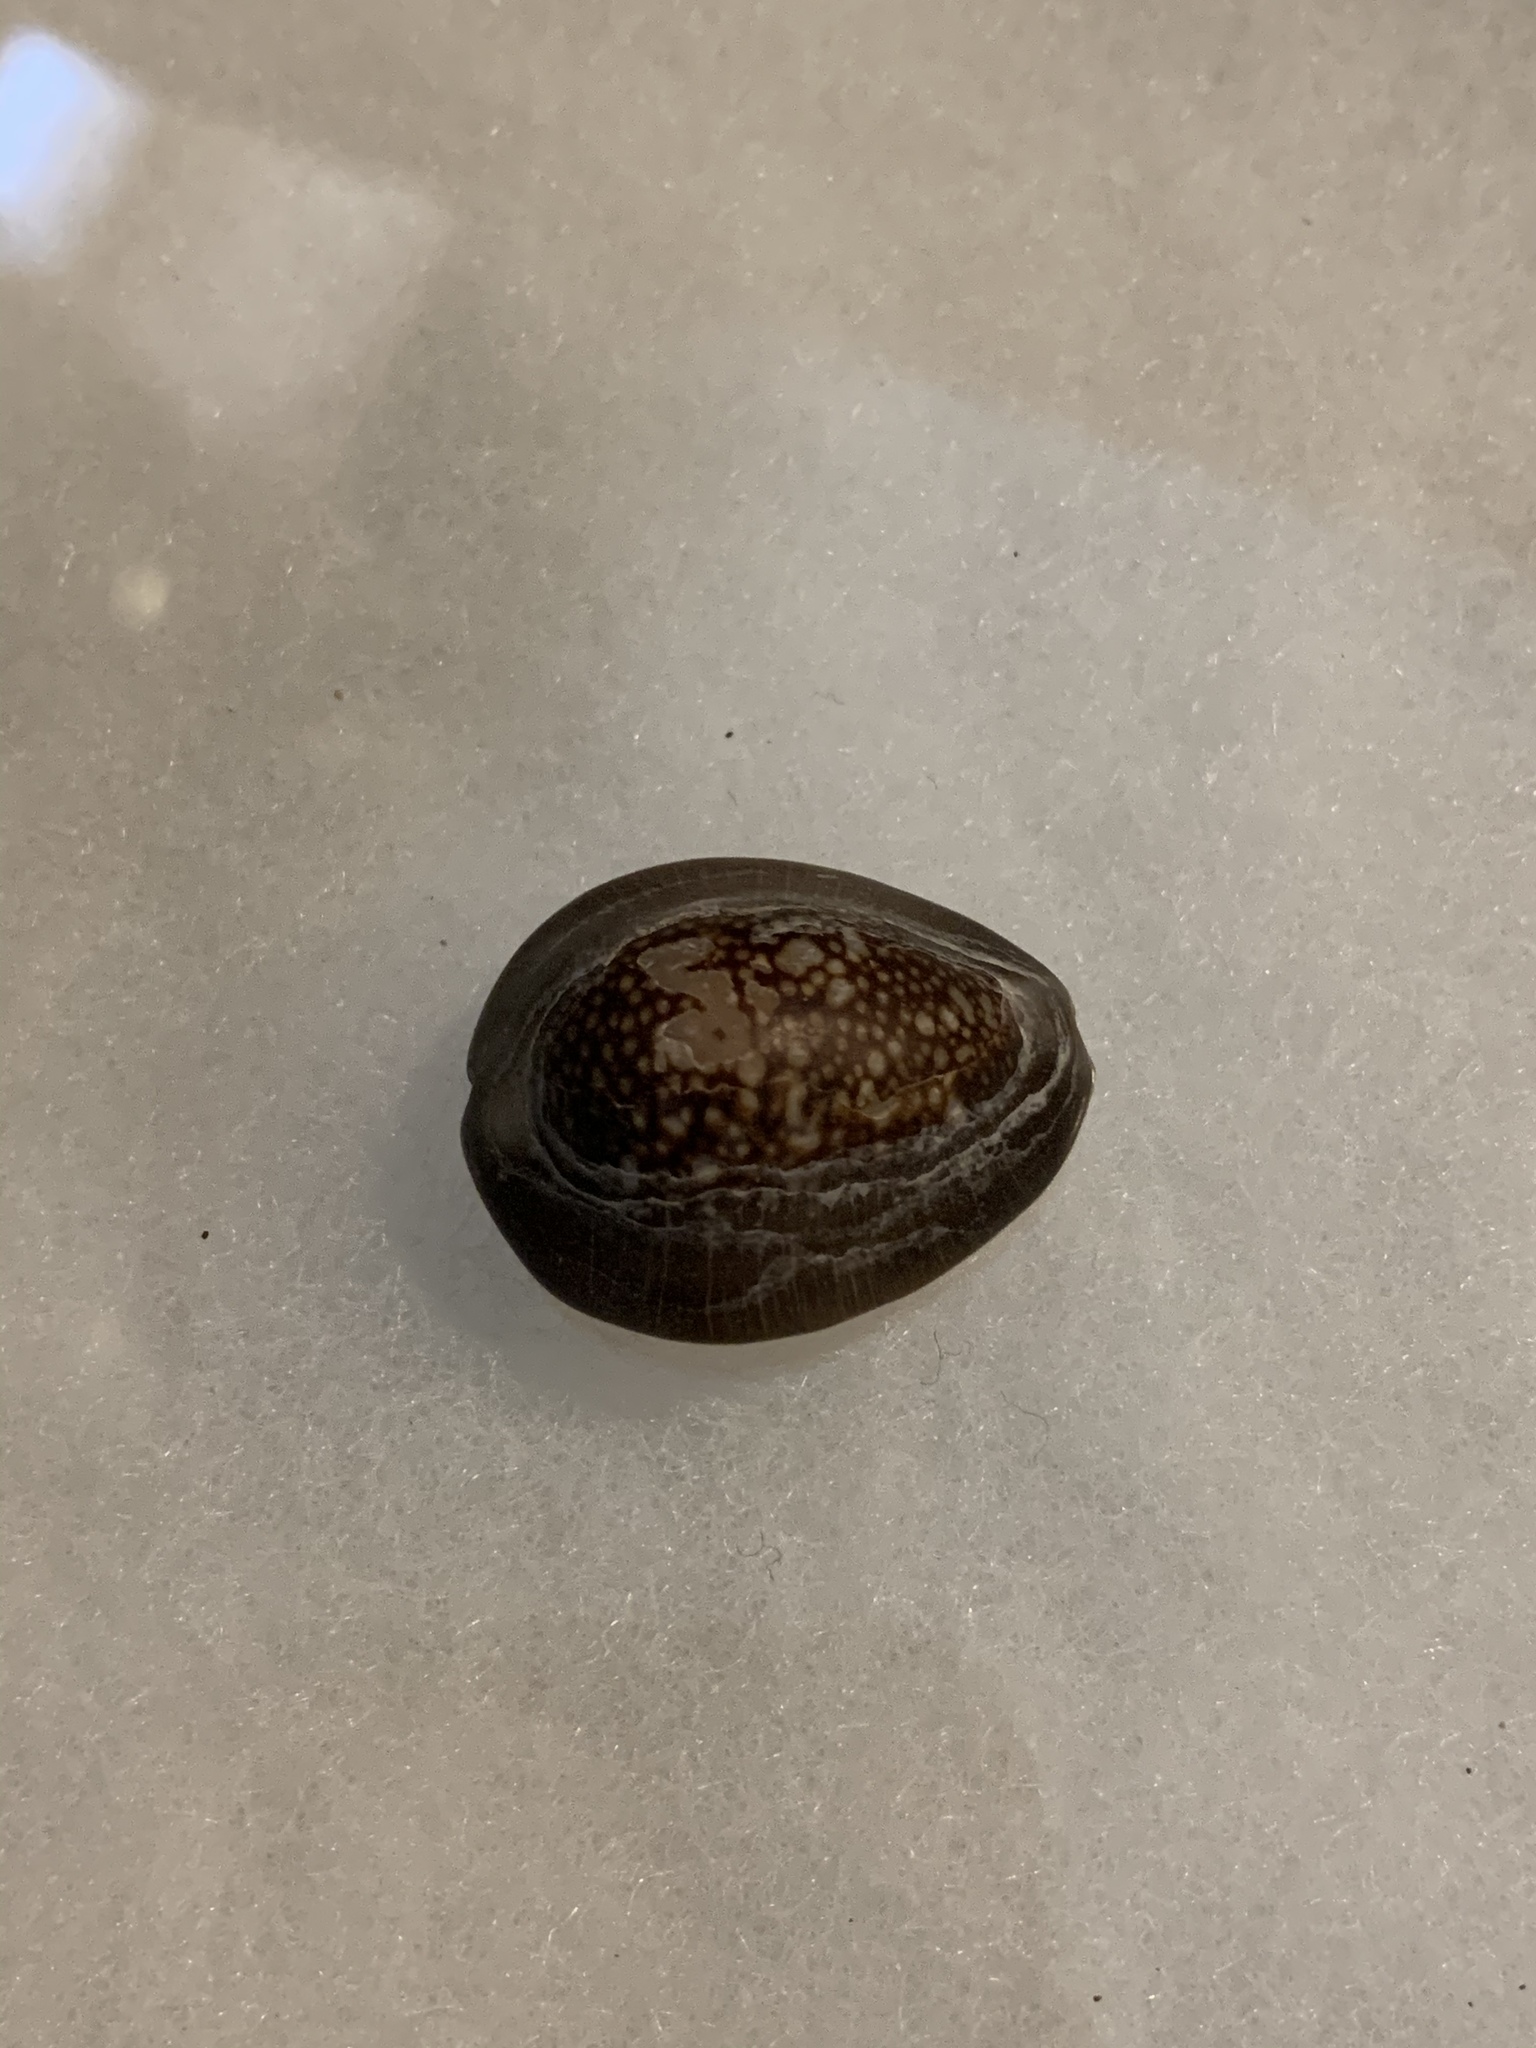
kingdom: Animalia
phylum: Mollusca
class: Gastropoda
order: Littorinimorpha
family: Cypraeidae
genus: Monetaria
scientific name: Monetaria caputophidii
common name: Snake's head cowry
